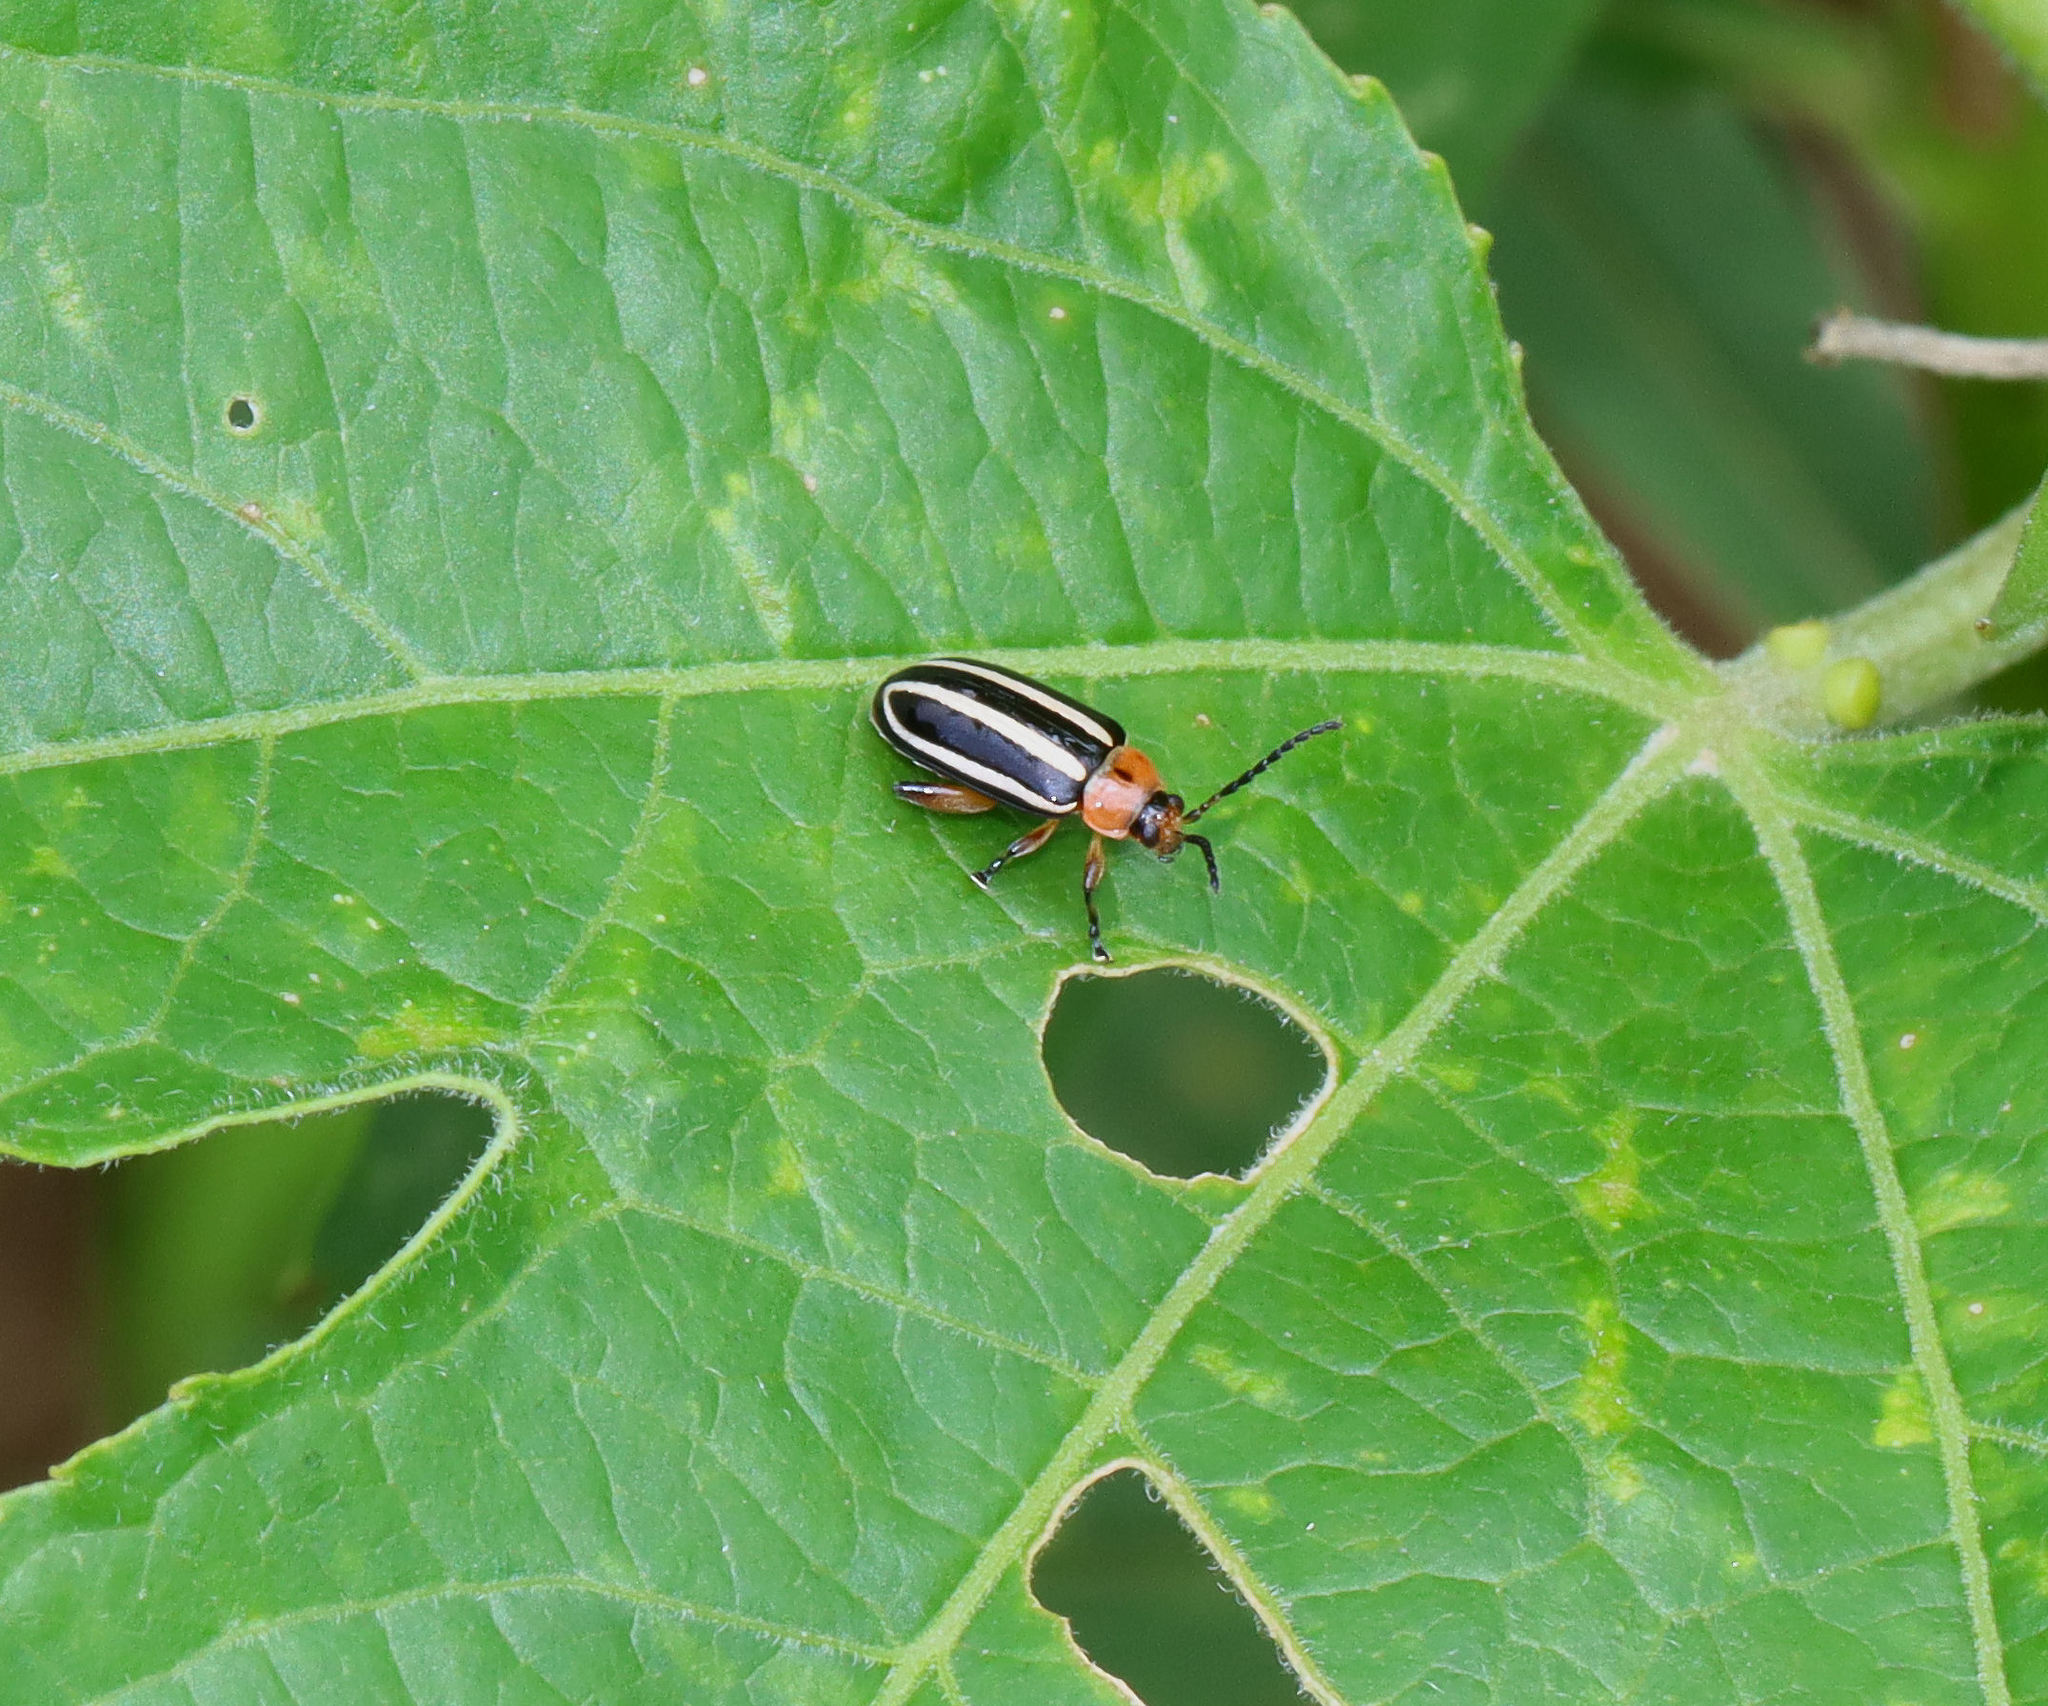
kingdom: Animalia
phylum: Arthropoda
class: Insecta
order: Coleoptera
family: Chrysomelidae
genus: Disonycha
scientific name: Disonycha glabrata
